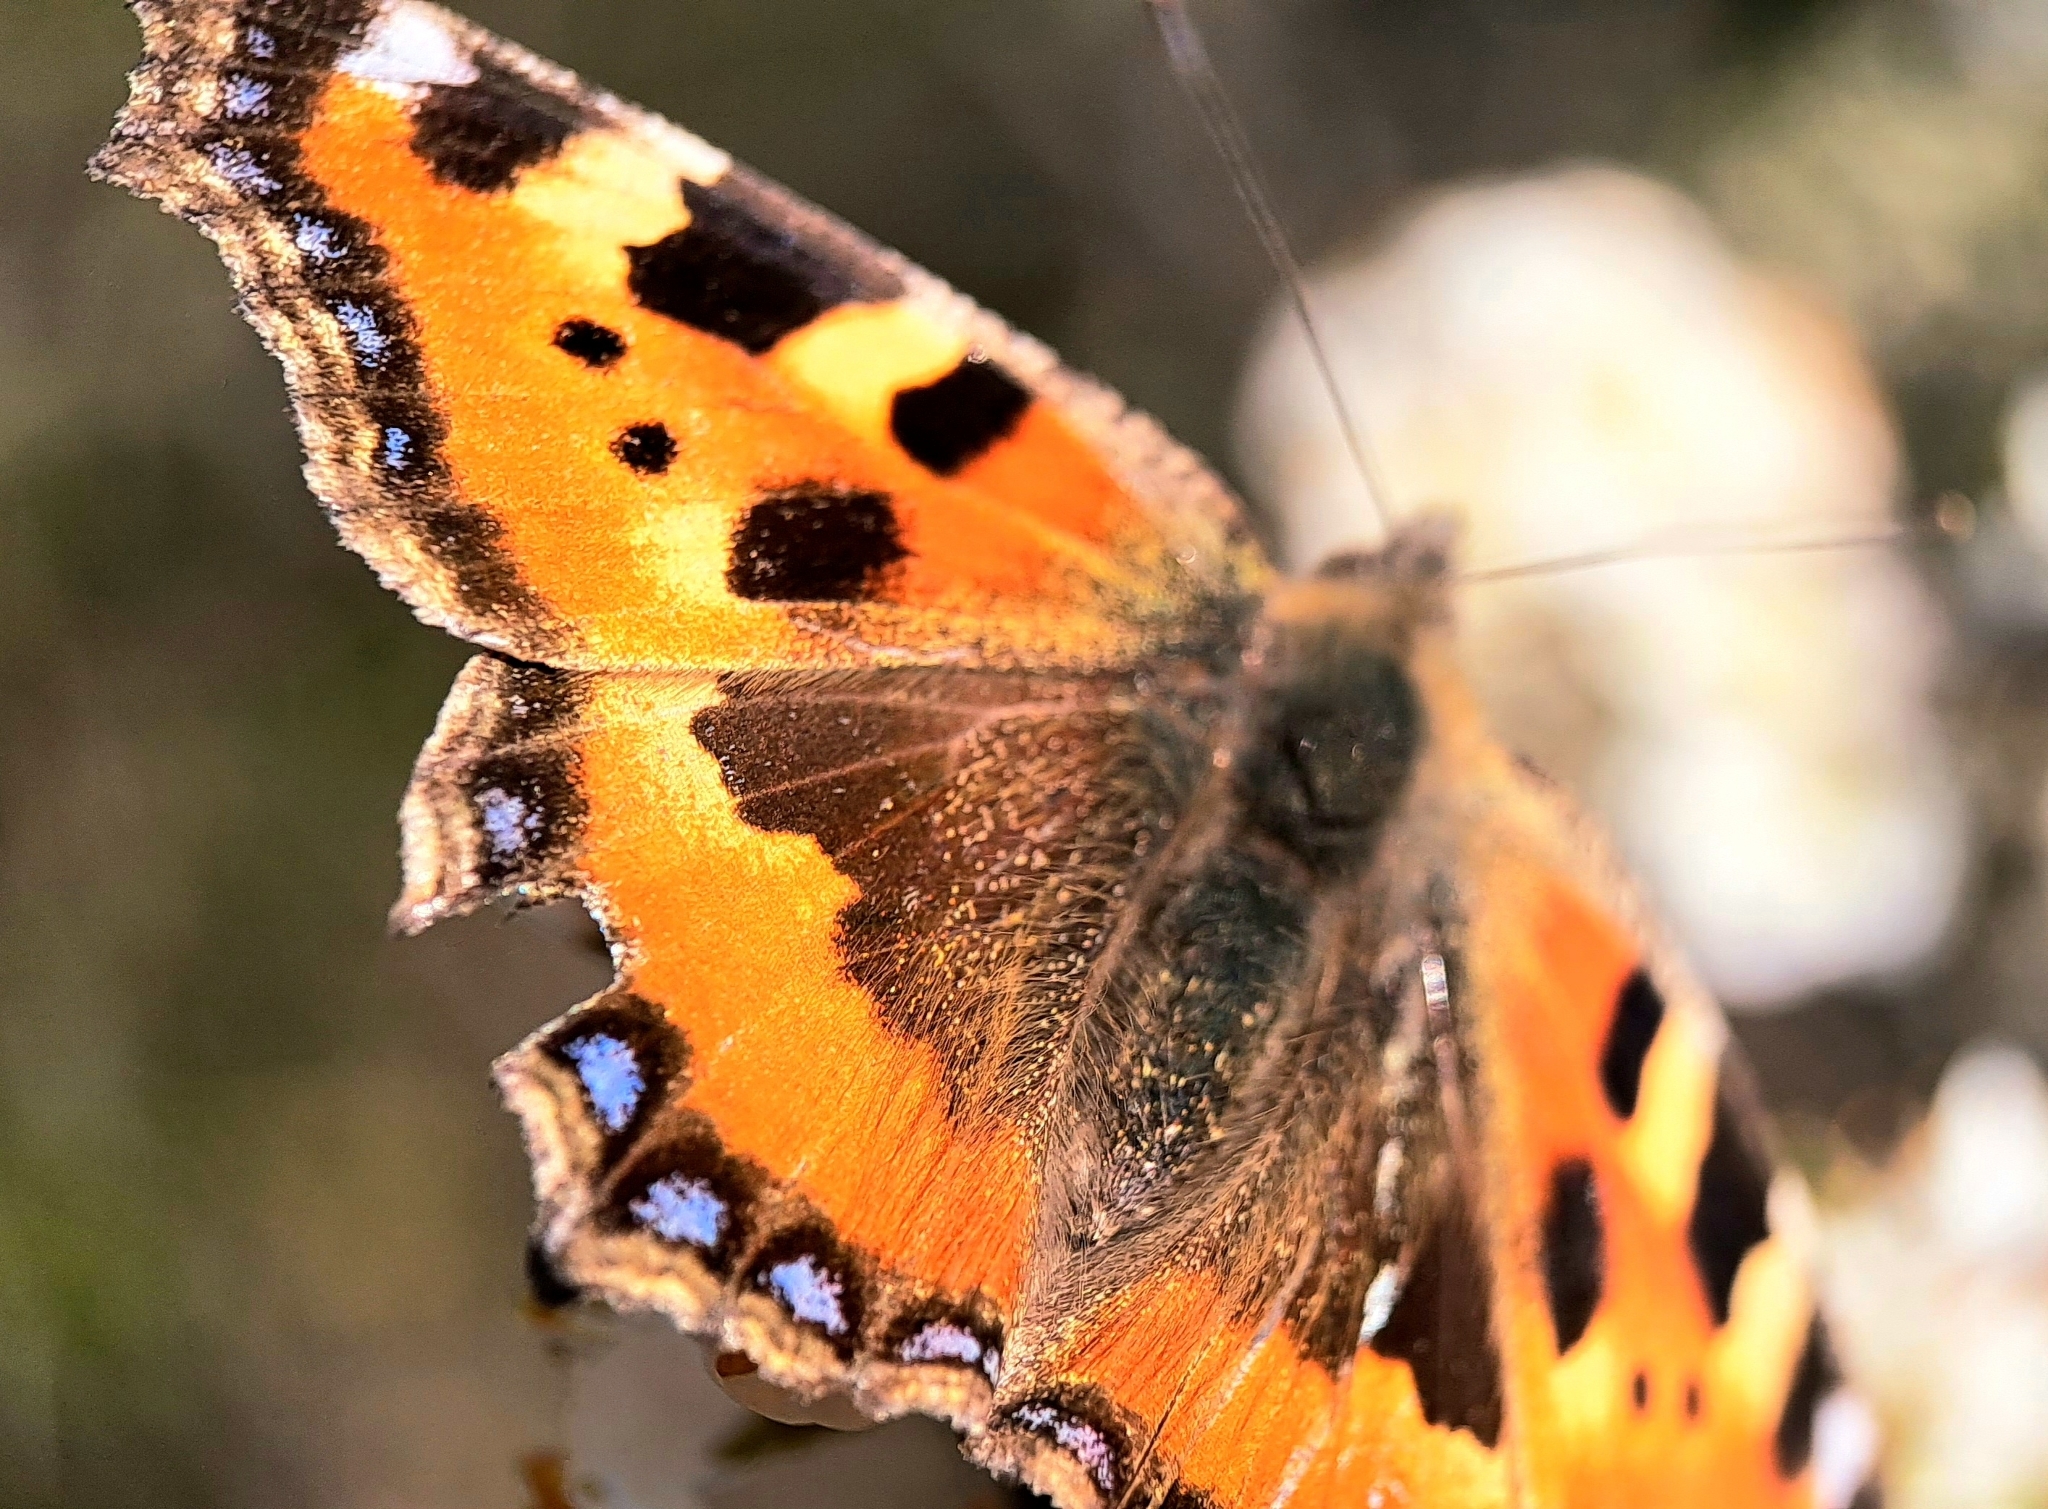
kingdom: Animalia
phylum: Arthropoda
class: Insecta
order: Lepidoptera
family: Nymphalidae
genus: Aglais
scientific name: Aglais urticae
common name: Small tortoiseshell
